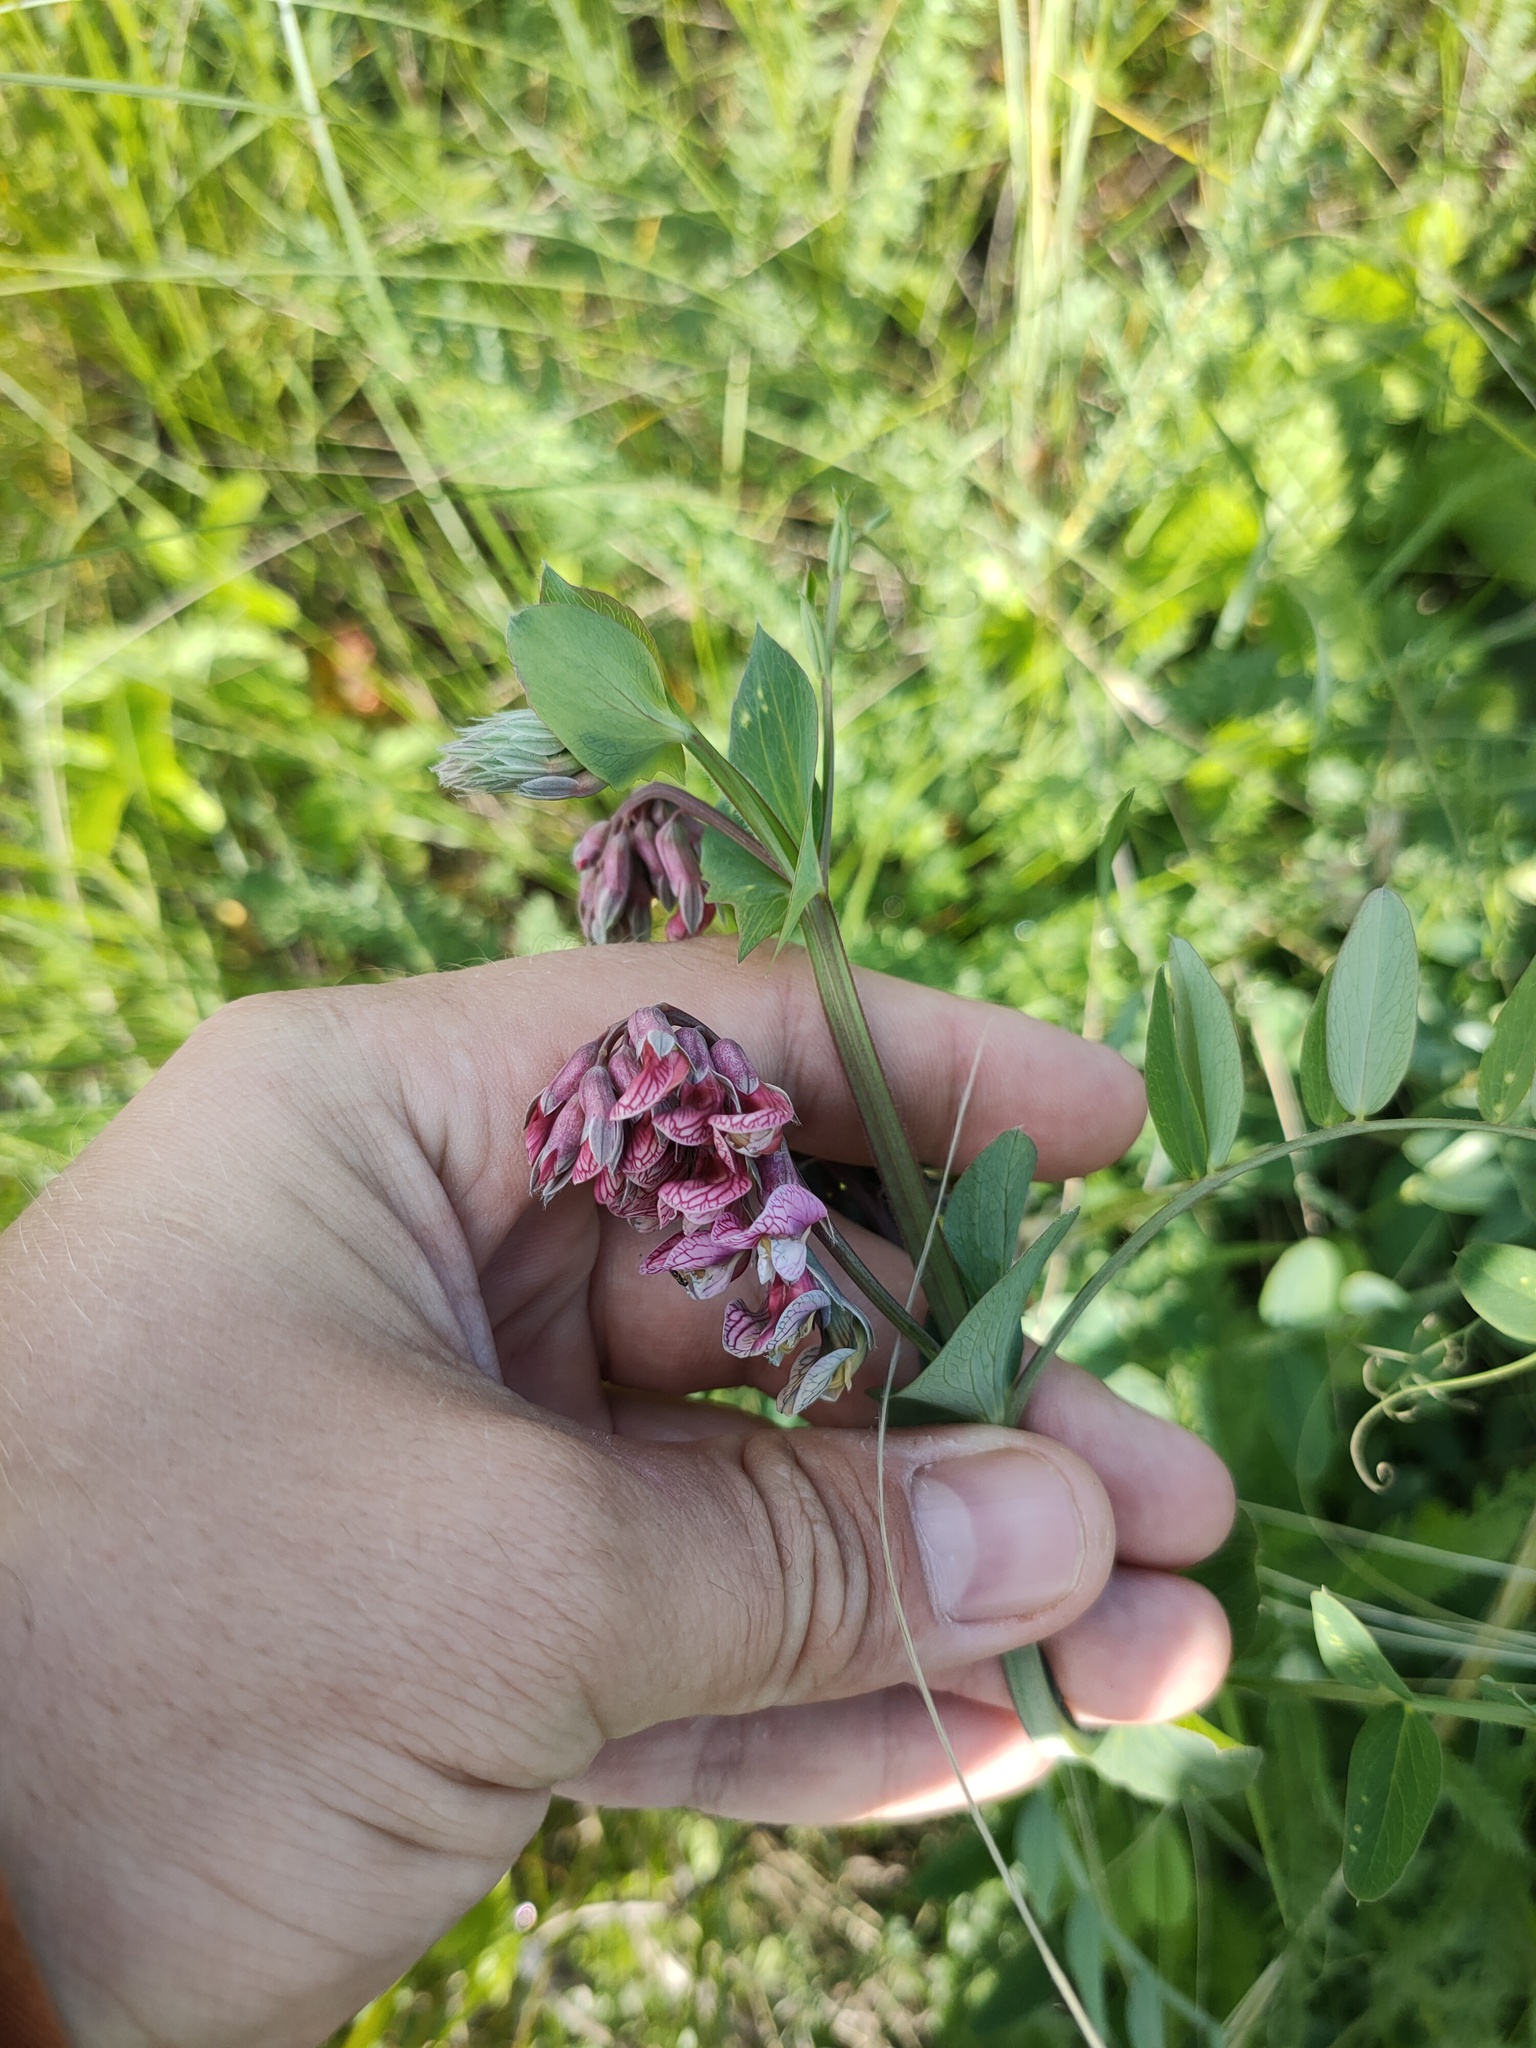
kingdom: Plantae
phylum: Tracheophyta
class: Magnoliopsida
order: Fabales
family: Fabaceae
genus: Lathyrus
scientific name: Lathyrus pisiformis
